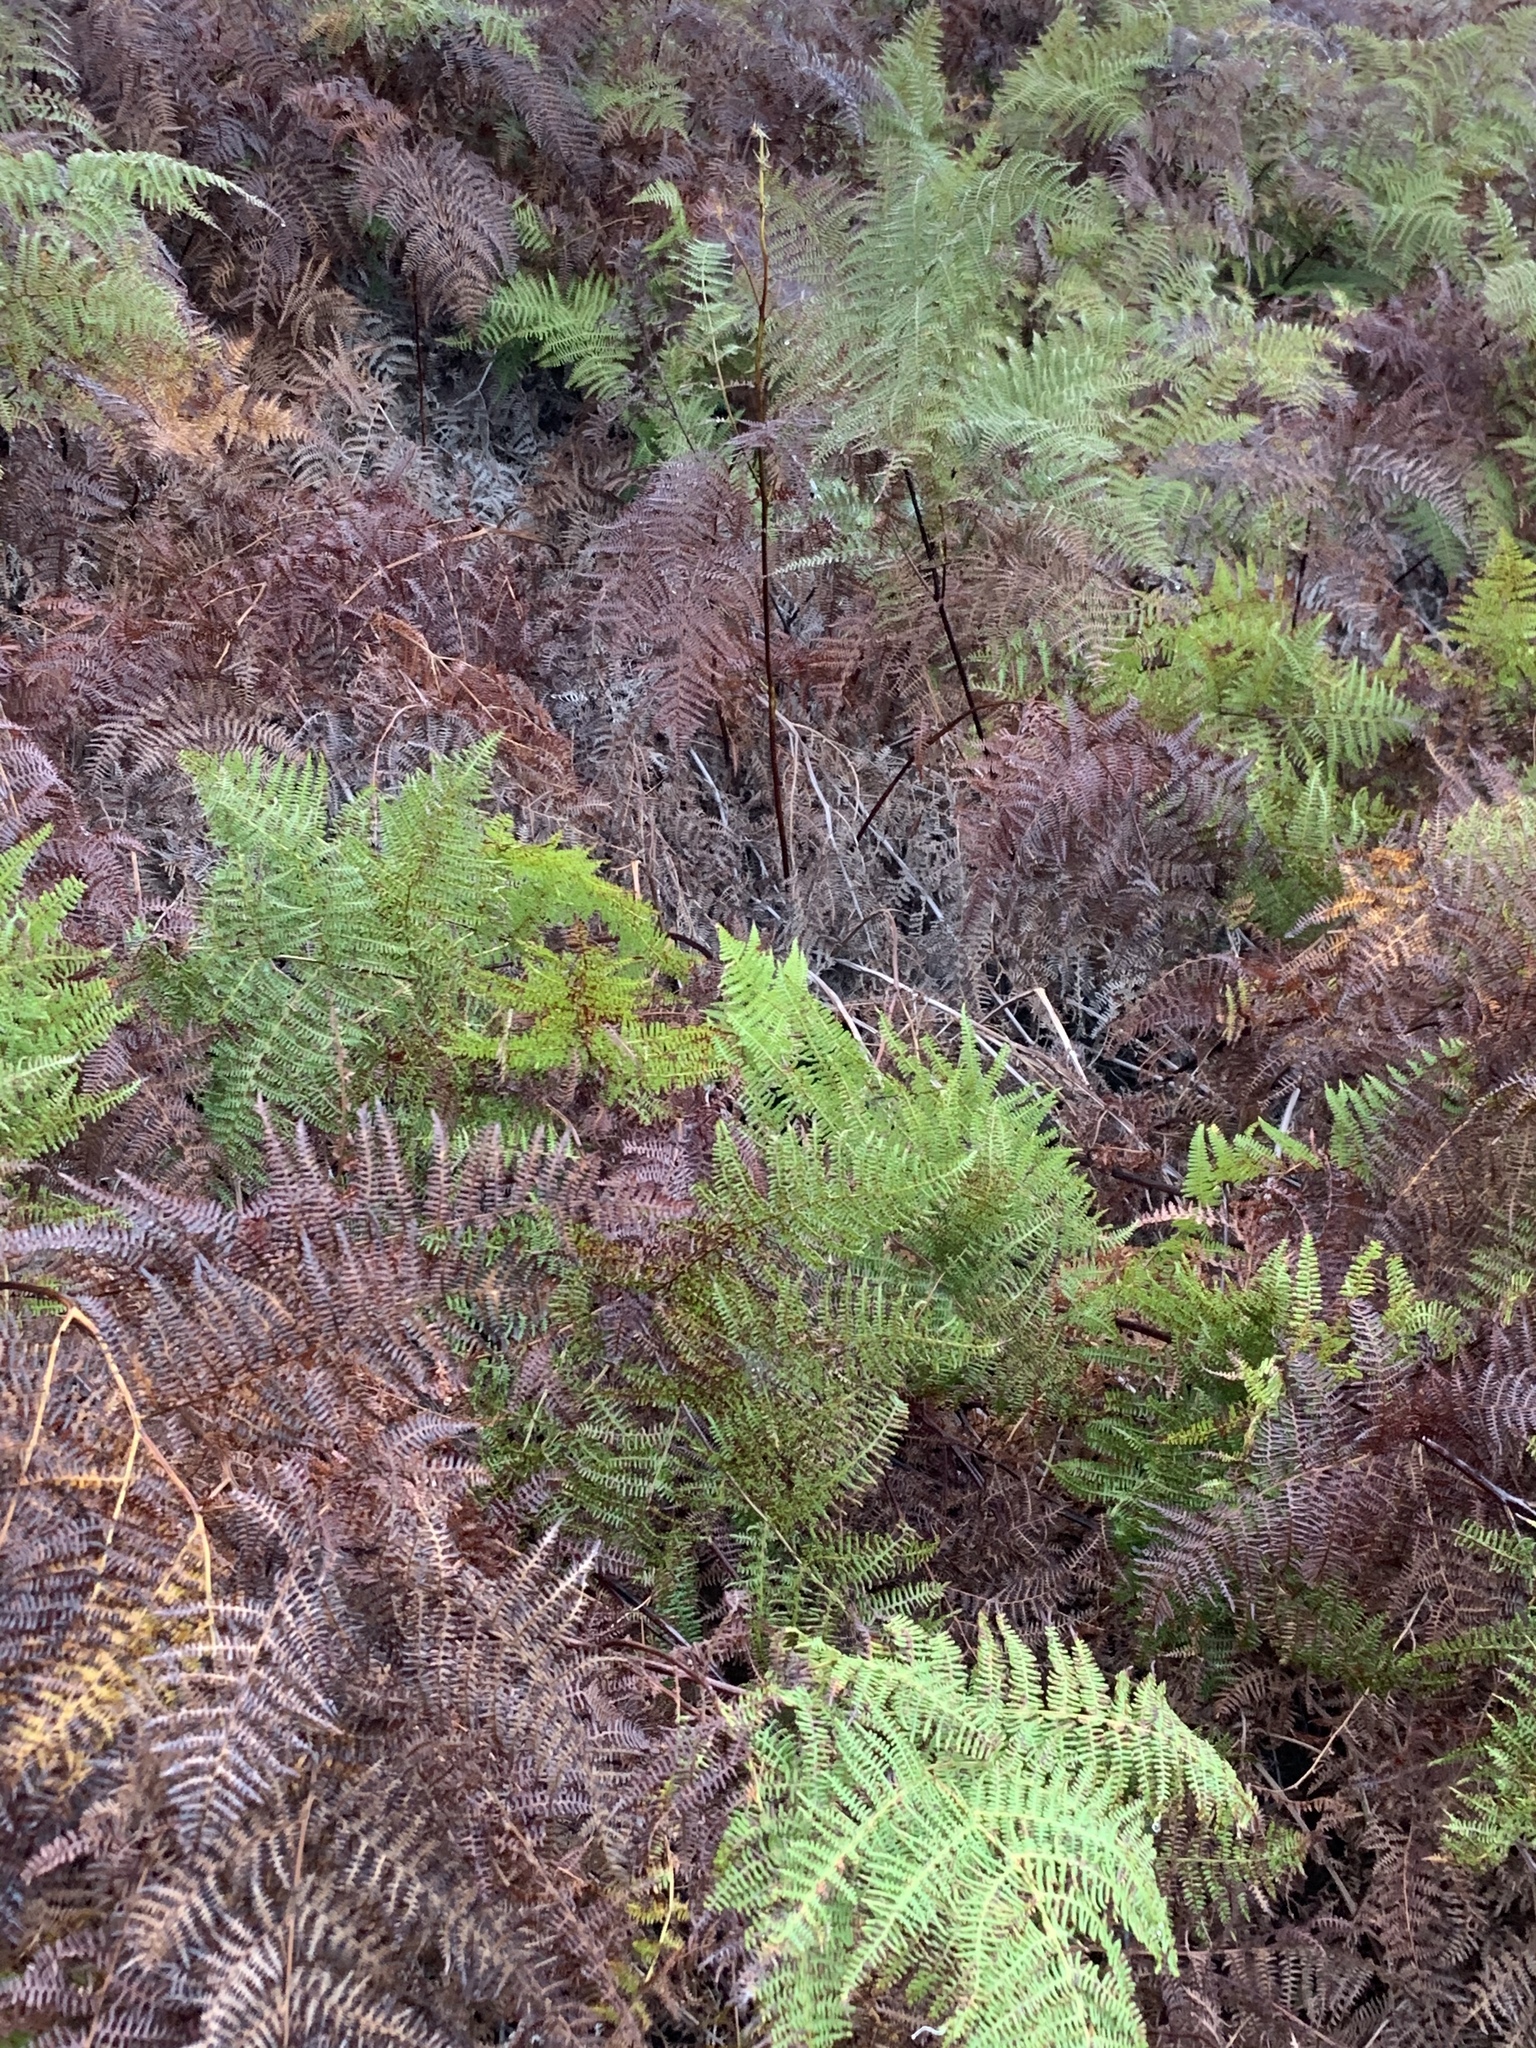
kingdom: Plantae
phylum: Tracheophyta
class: Polypodiopsida
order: Polypodiales
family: Dennstaedtiaceae
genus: Pteridium
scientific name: Pteridium aquilinum
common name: Bracken
